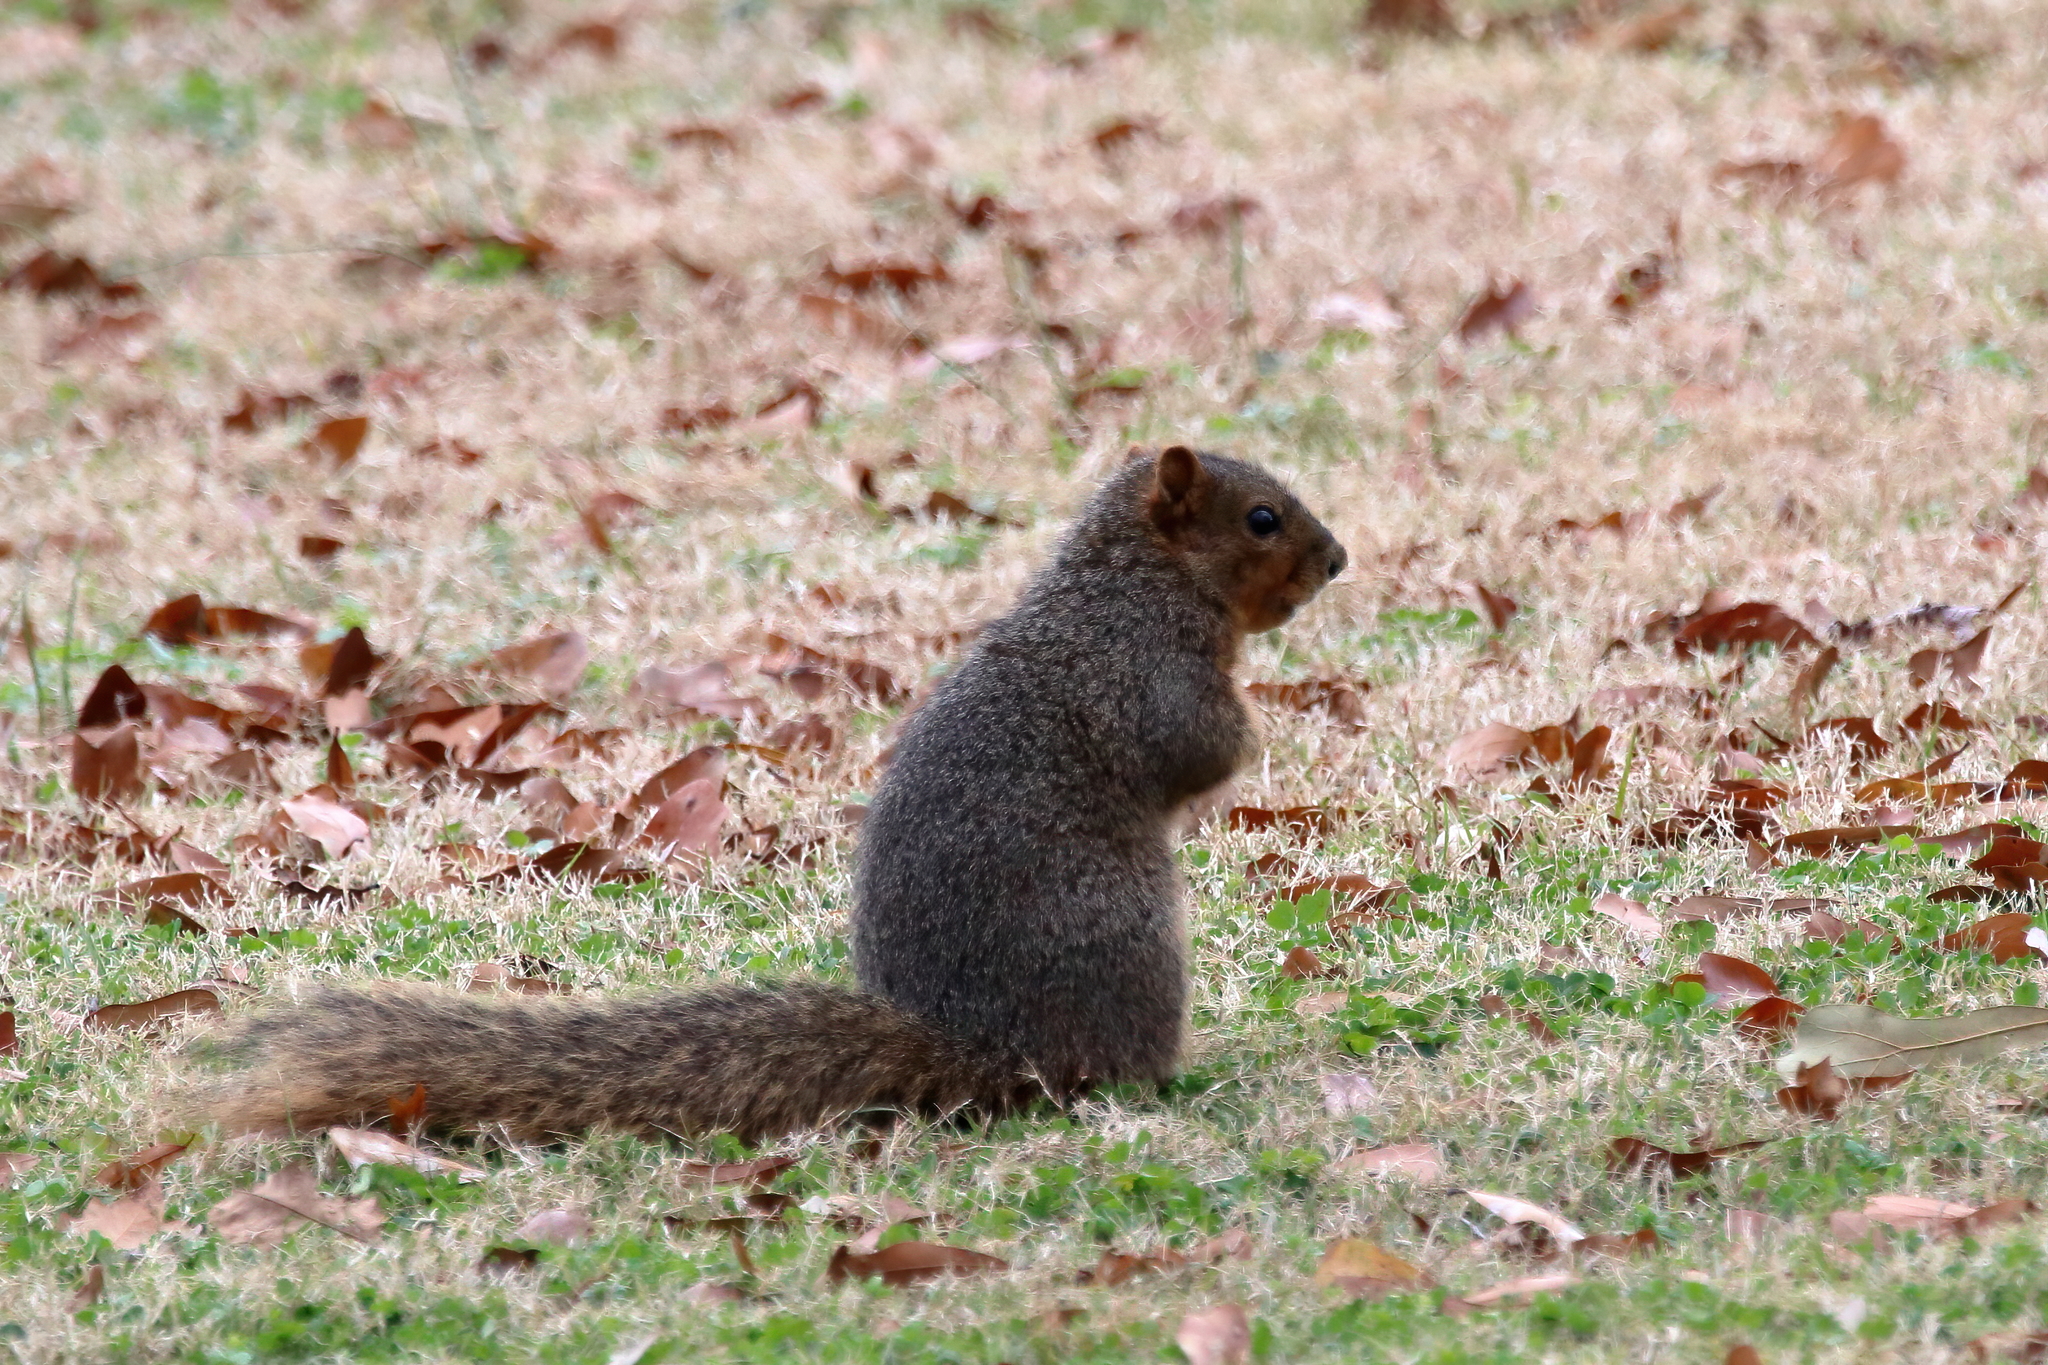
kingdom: Animalia
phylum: Chordata
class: Mammalia
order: Rodentia
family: Sciuridae
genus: Sciurus
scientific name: Sciurus niger
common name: Fox squirrel
